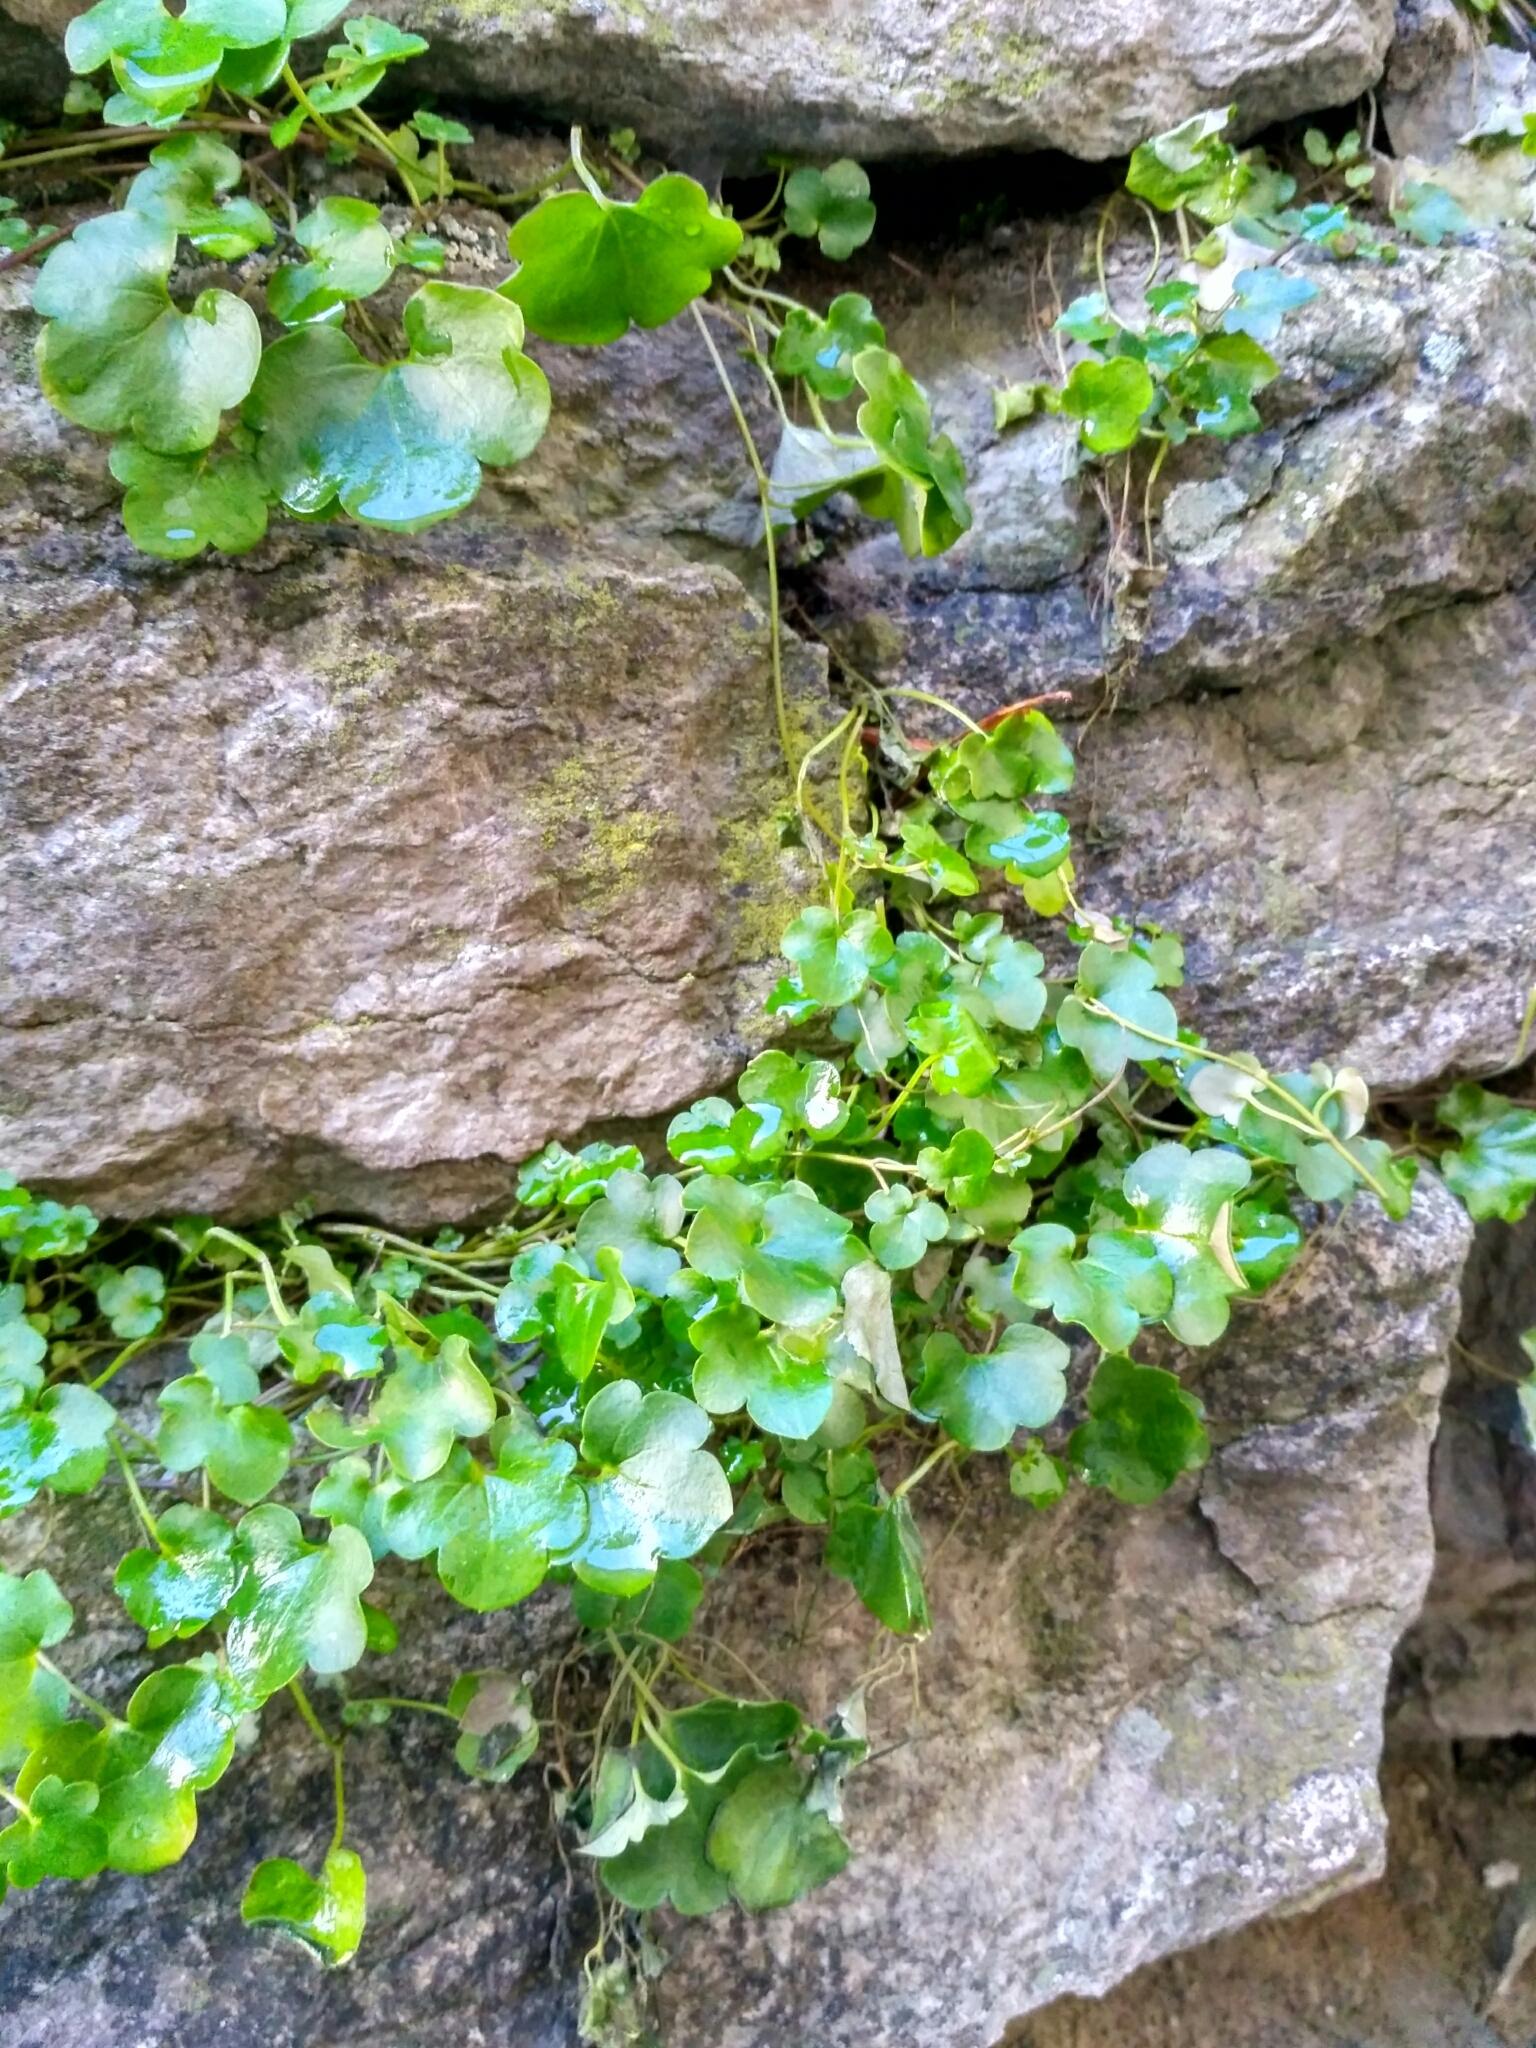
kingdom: Plantae
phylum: Tracheophyta
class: Magnoliopsida
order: Lamiales
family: Plantaginaceae
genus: Cymbalaria
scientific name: Cymbalaria muralis
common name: Ivy-leaved toadflax
